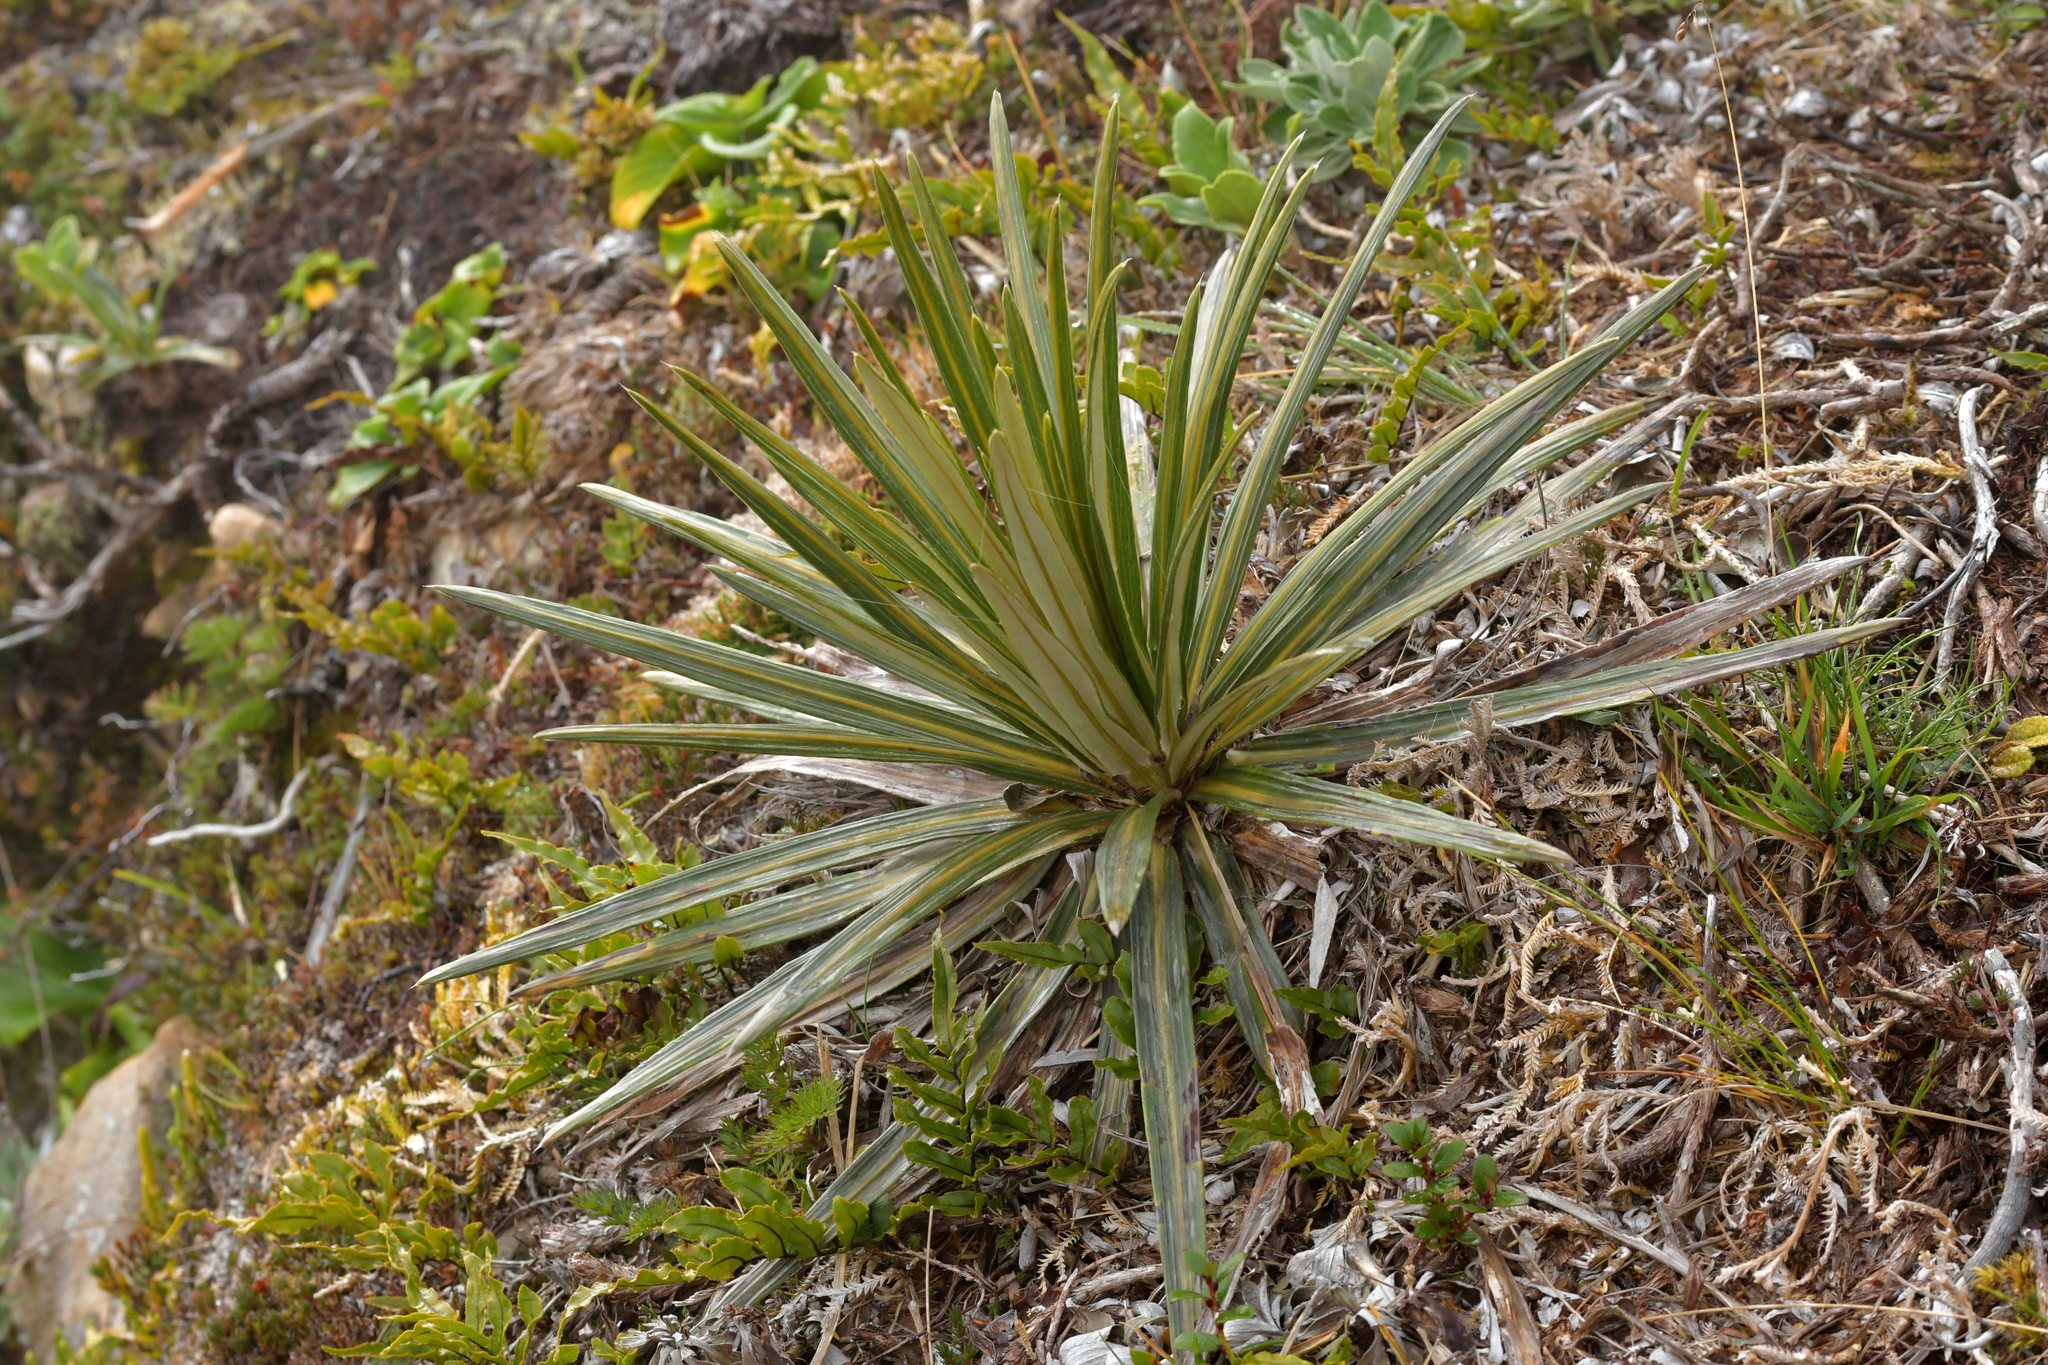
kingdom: Plantae
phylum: Tracheophyta
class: Magnoliopsida
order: Asterales
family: Asteraceae
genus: Celmisia
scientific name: Celmisia armstrongii
